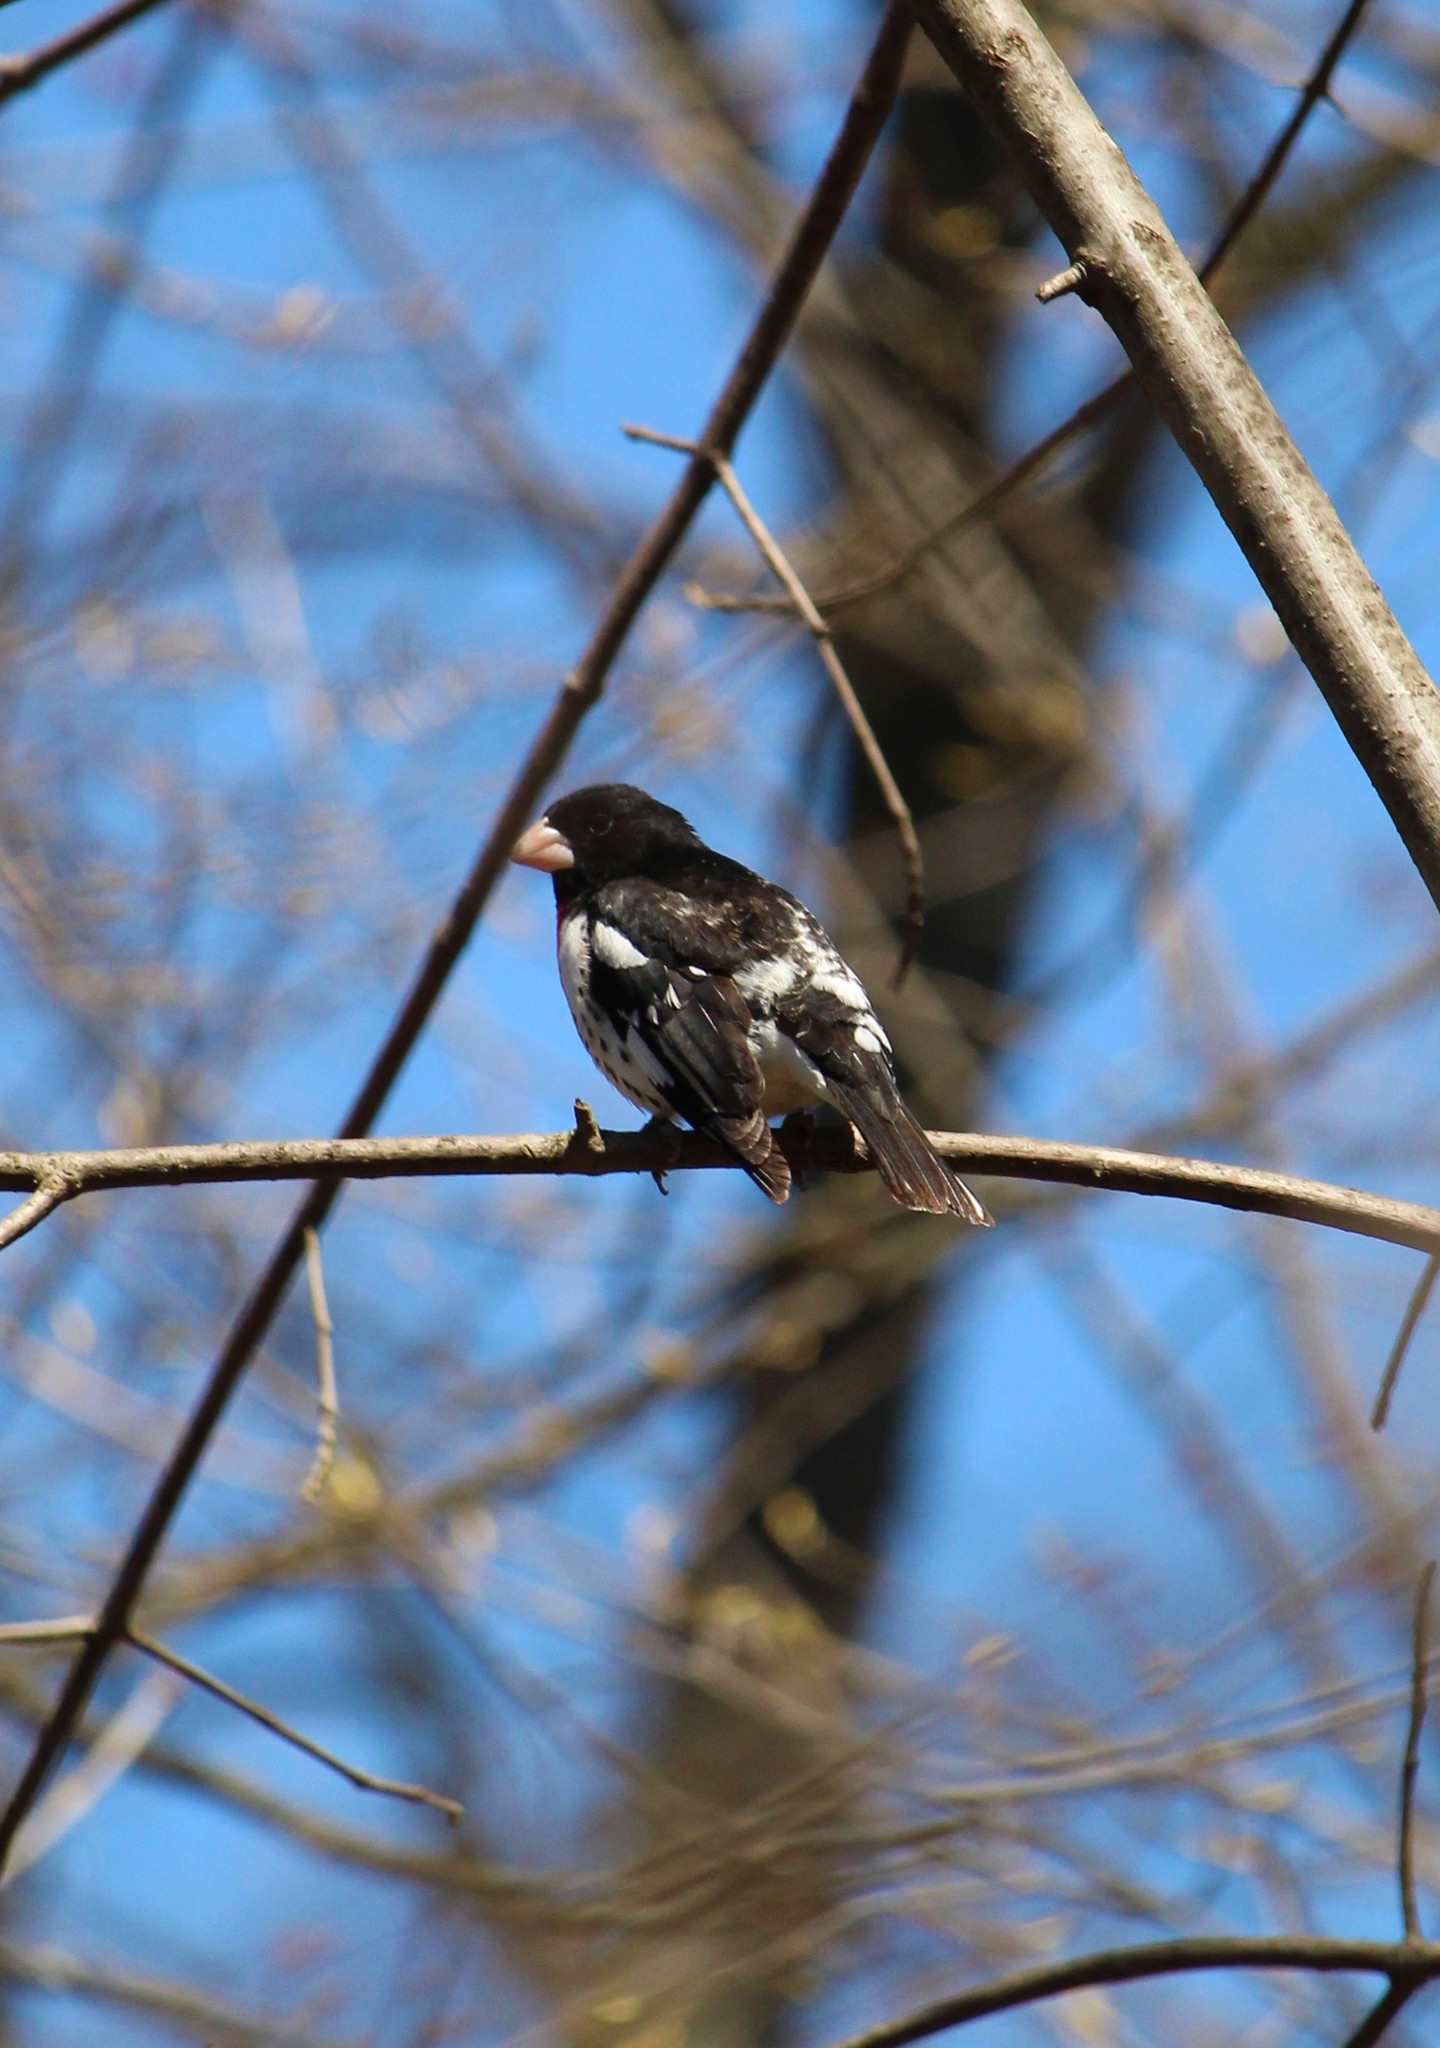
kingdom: Animalia
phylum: Chordata
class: Aves
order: Passeriformes
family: Cardinalidae
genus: Pheucticus
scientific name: Pheucticus ludovicianus
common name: Rose-breasted grosbeak
